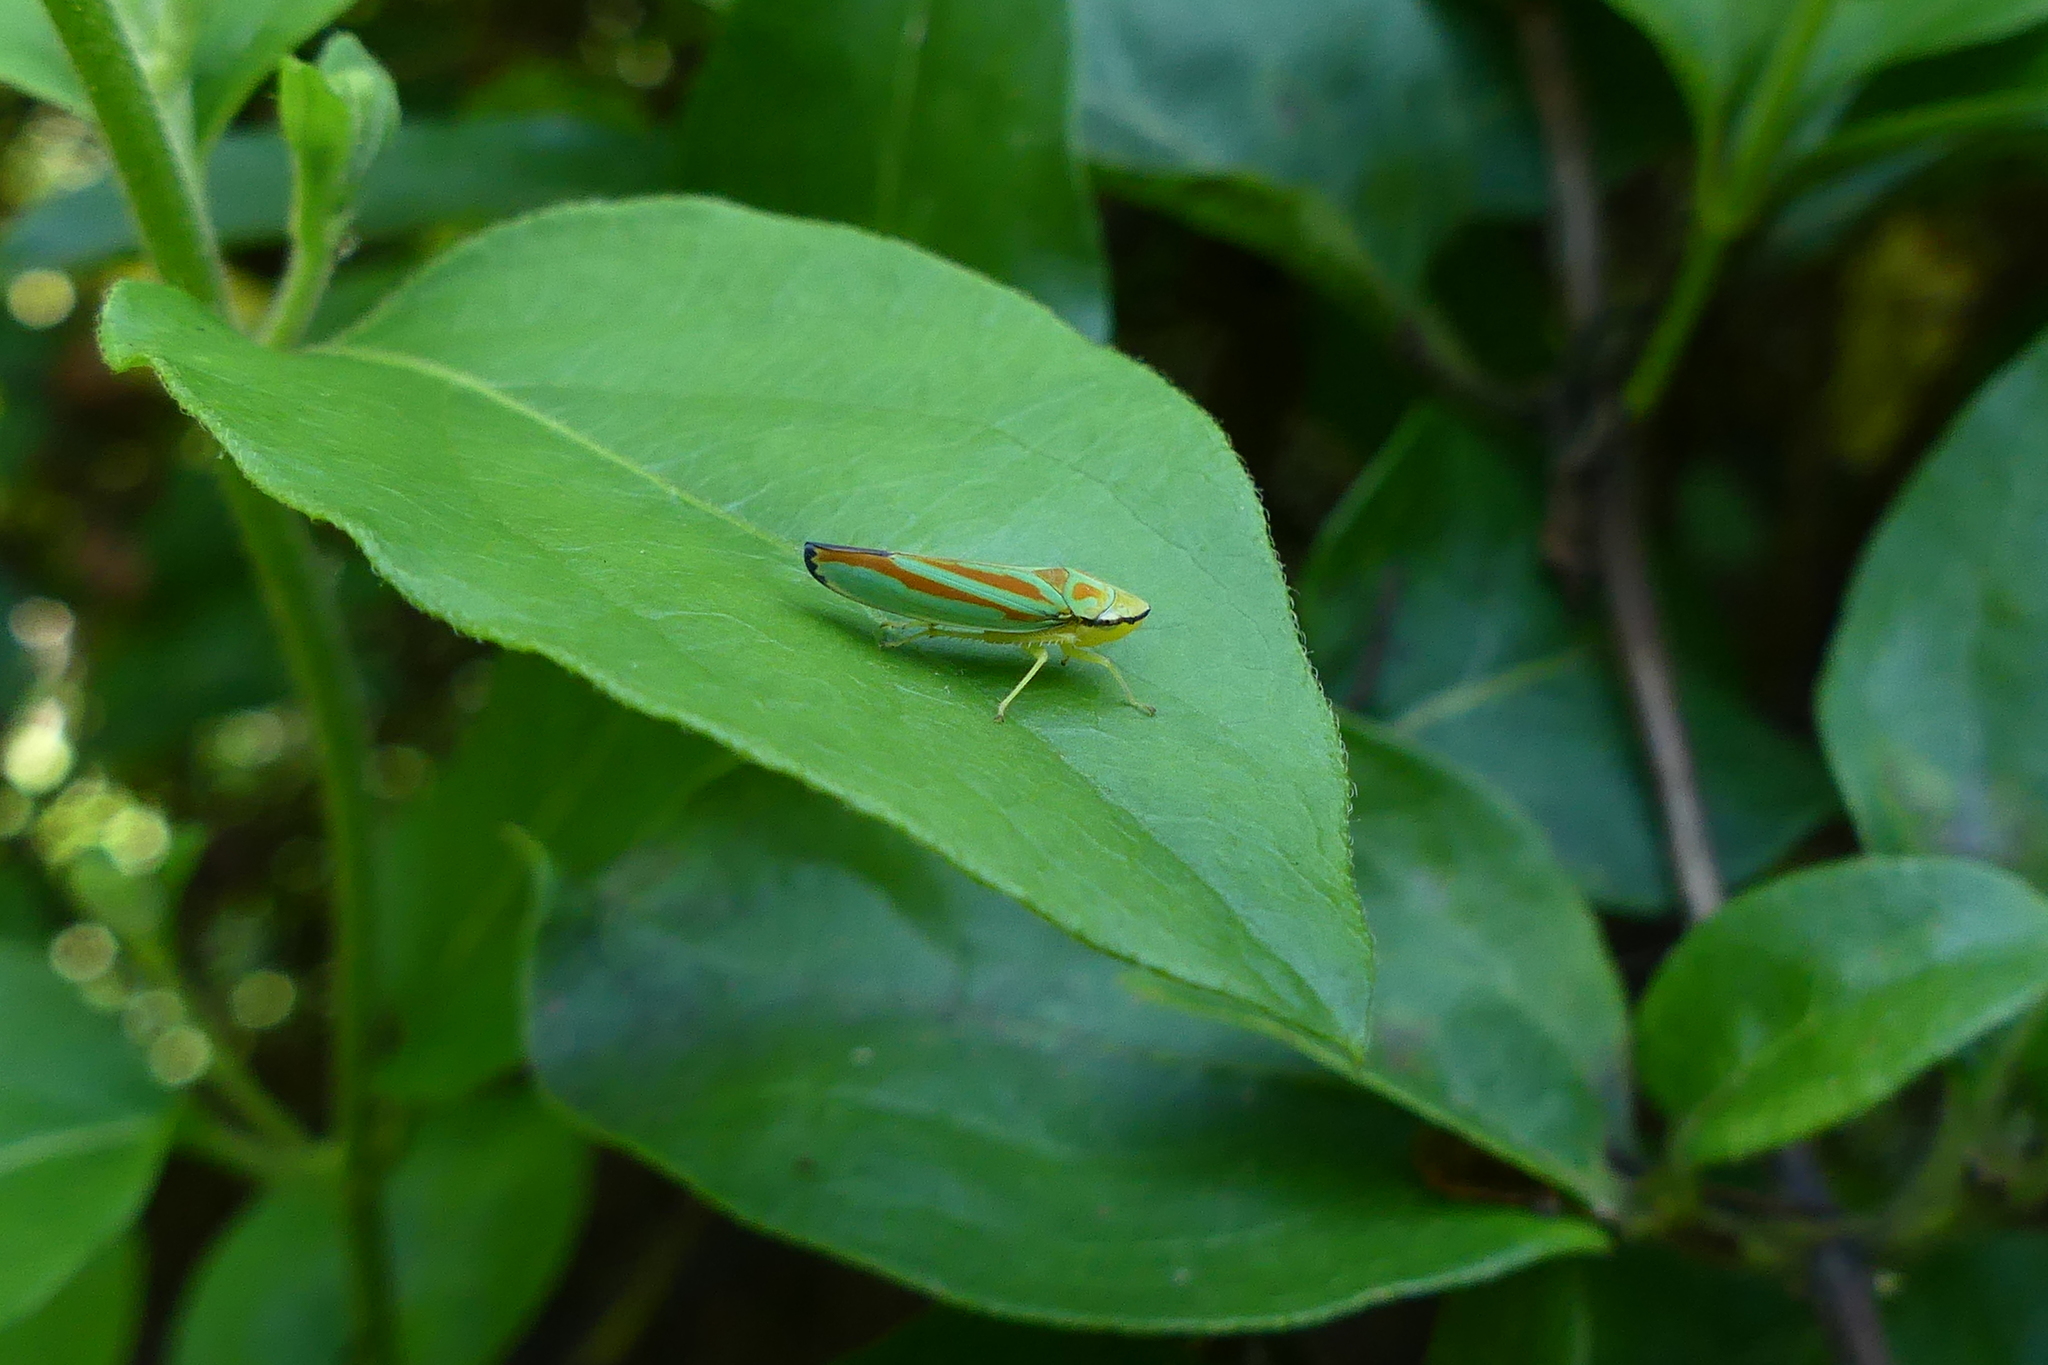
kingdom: Animalia
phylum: Arthropoda
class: Insecta
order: Hemiptera
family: Cicadellidae
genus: Graphocephala
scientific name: Graphocephala fennahi
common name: Rhododendron leafhopper
